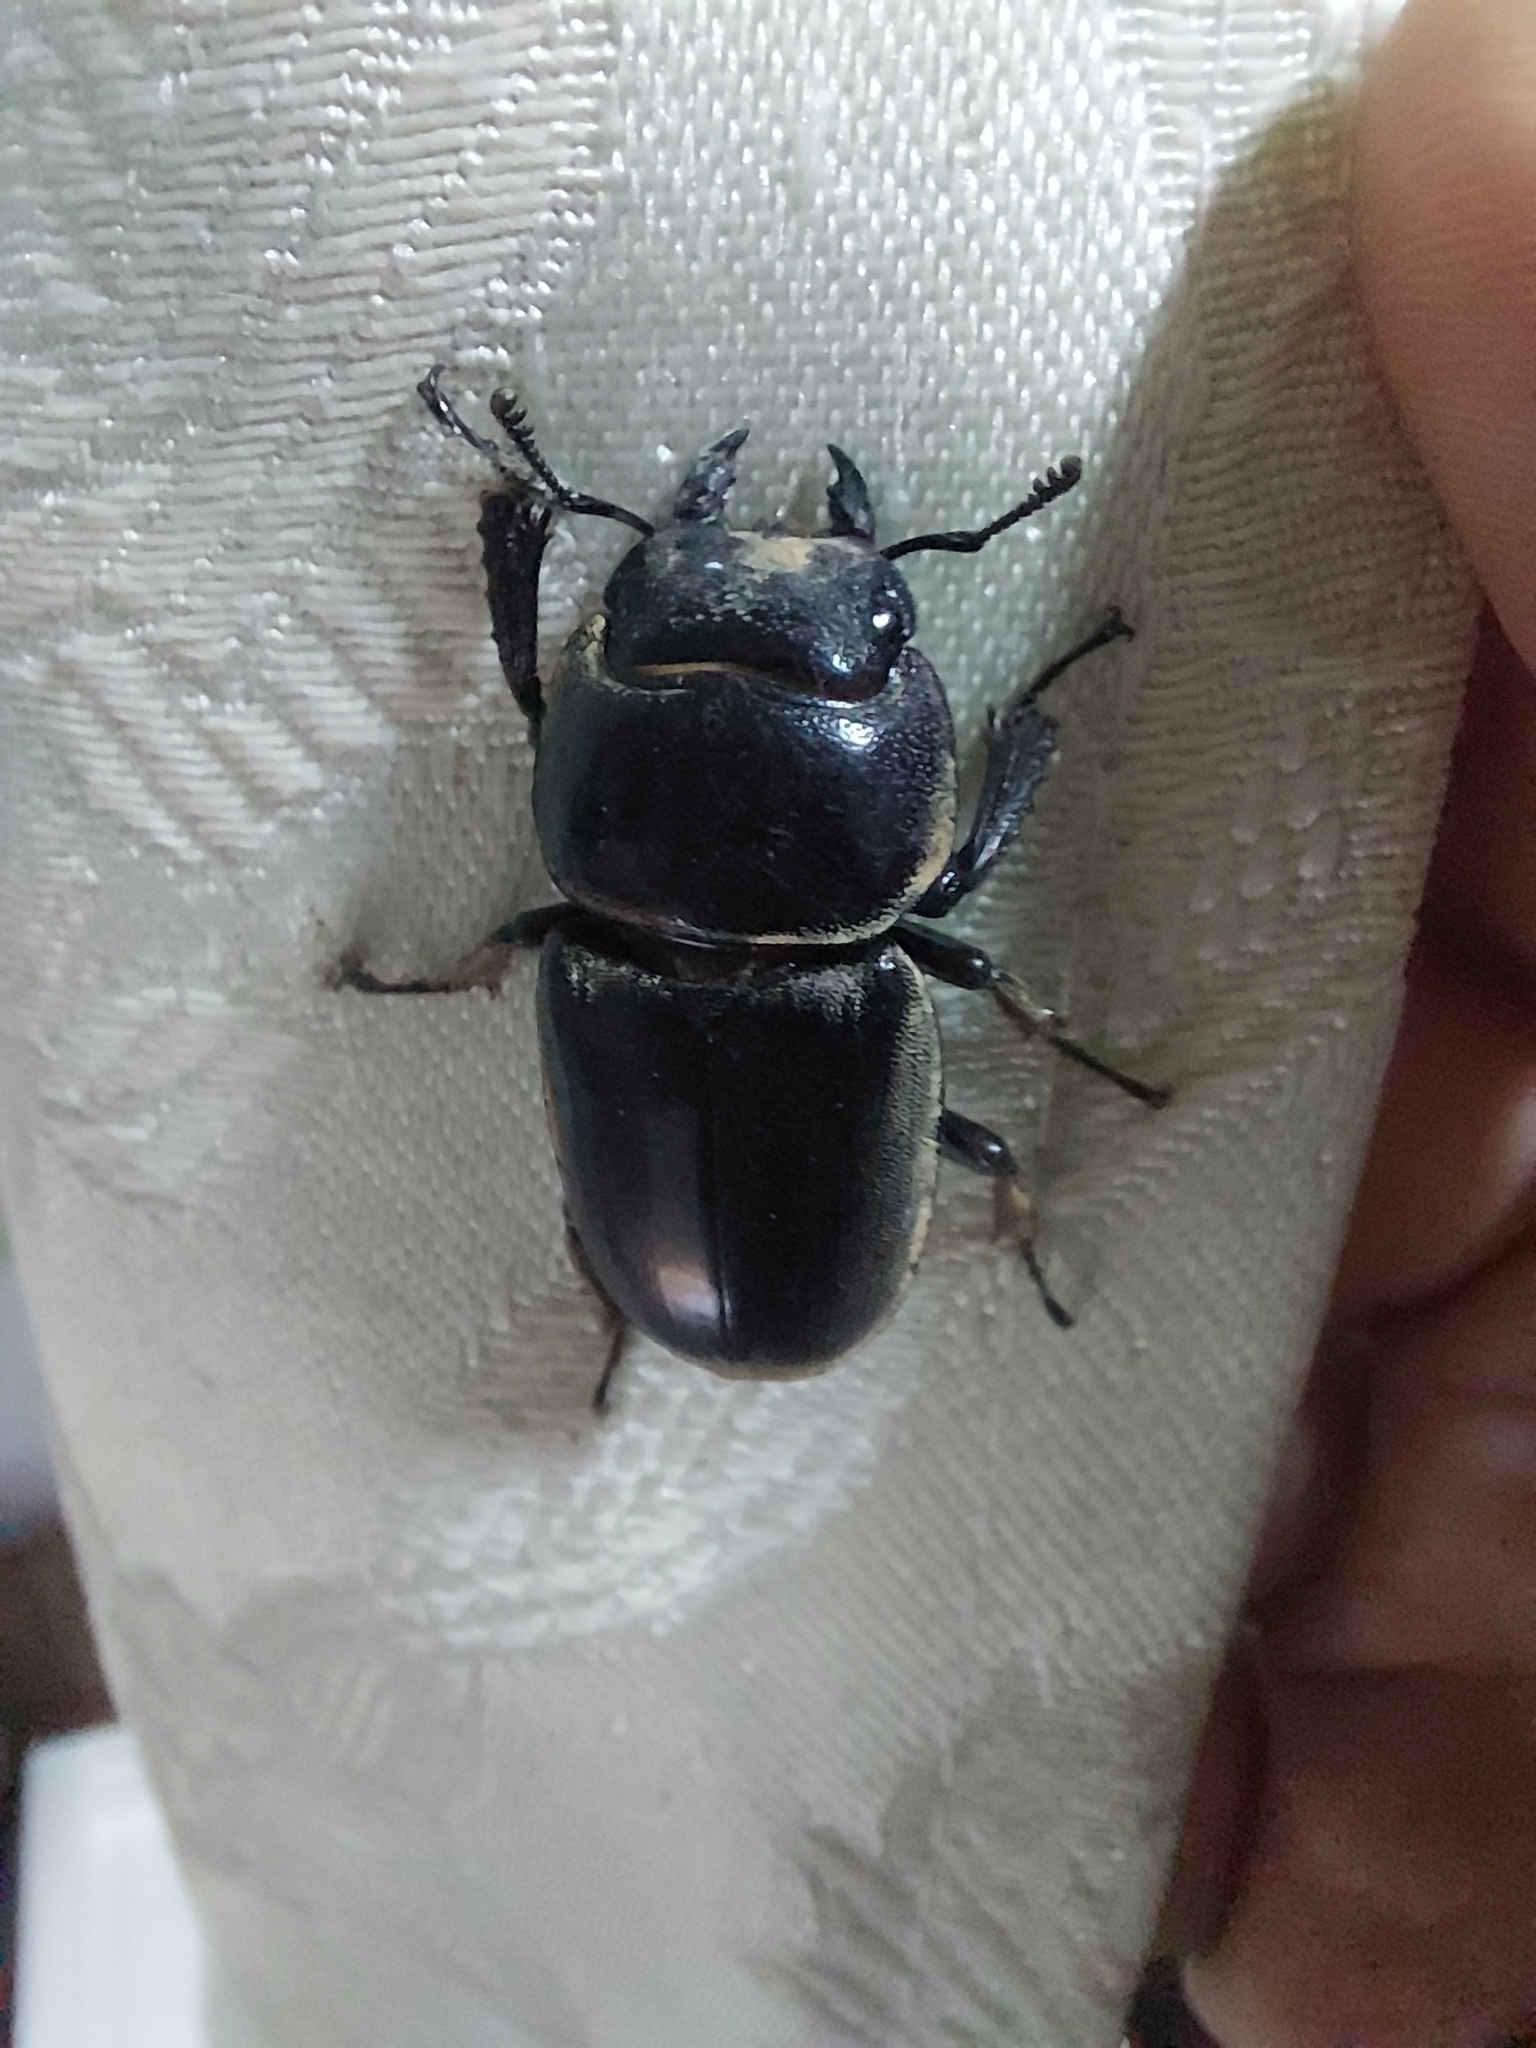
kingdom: Animalia
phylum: Arthropoda
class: Insecta
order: Coleoptera
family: Lucanidae
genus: Serrognathus
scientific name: Serrognathus titanus
